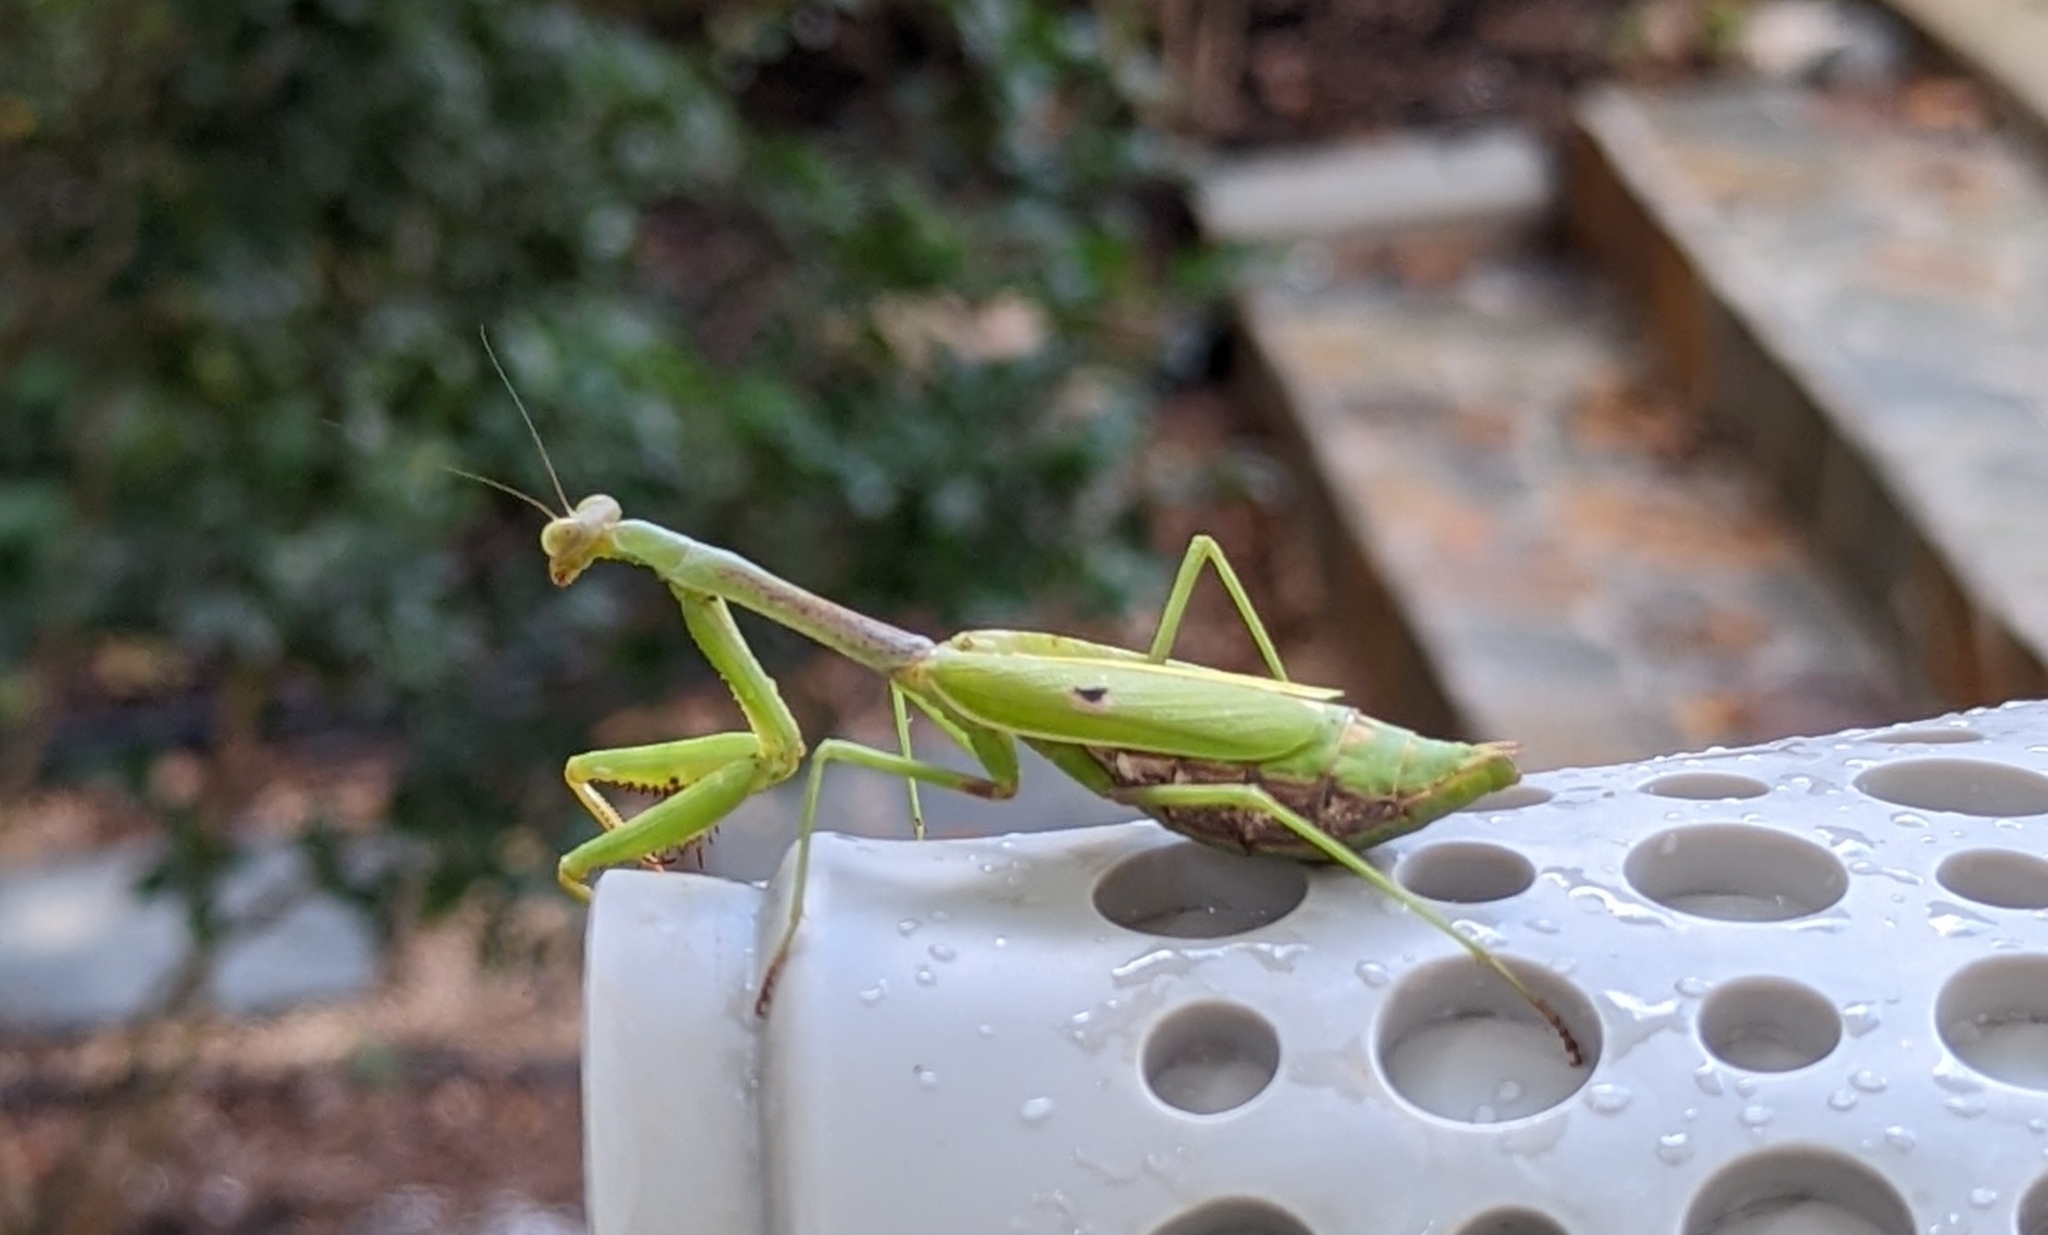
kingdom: Animalia
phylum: Arthropoda
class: Insecta
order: Mantodea
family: Mantidae
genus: Stagmomantis
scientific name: Stagmomantis carolina
